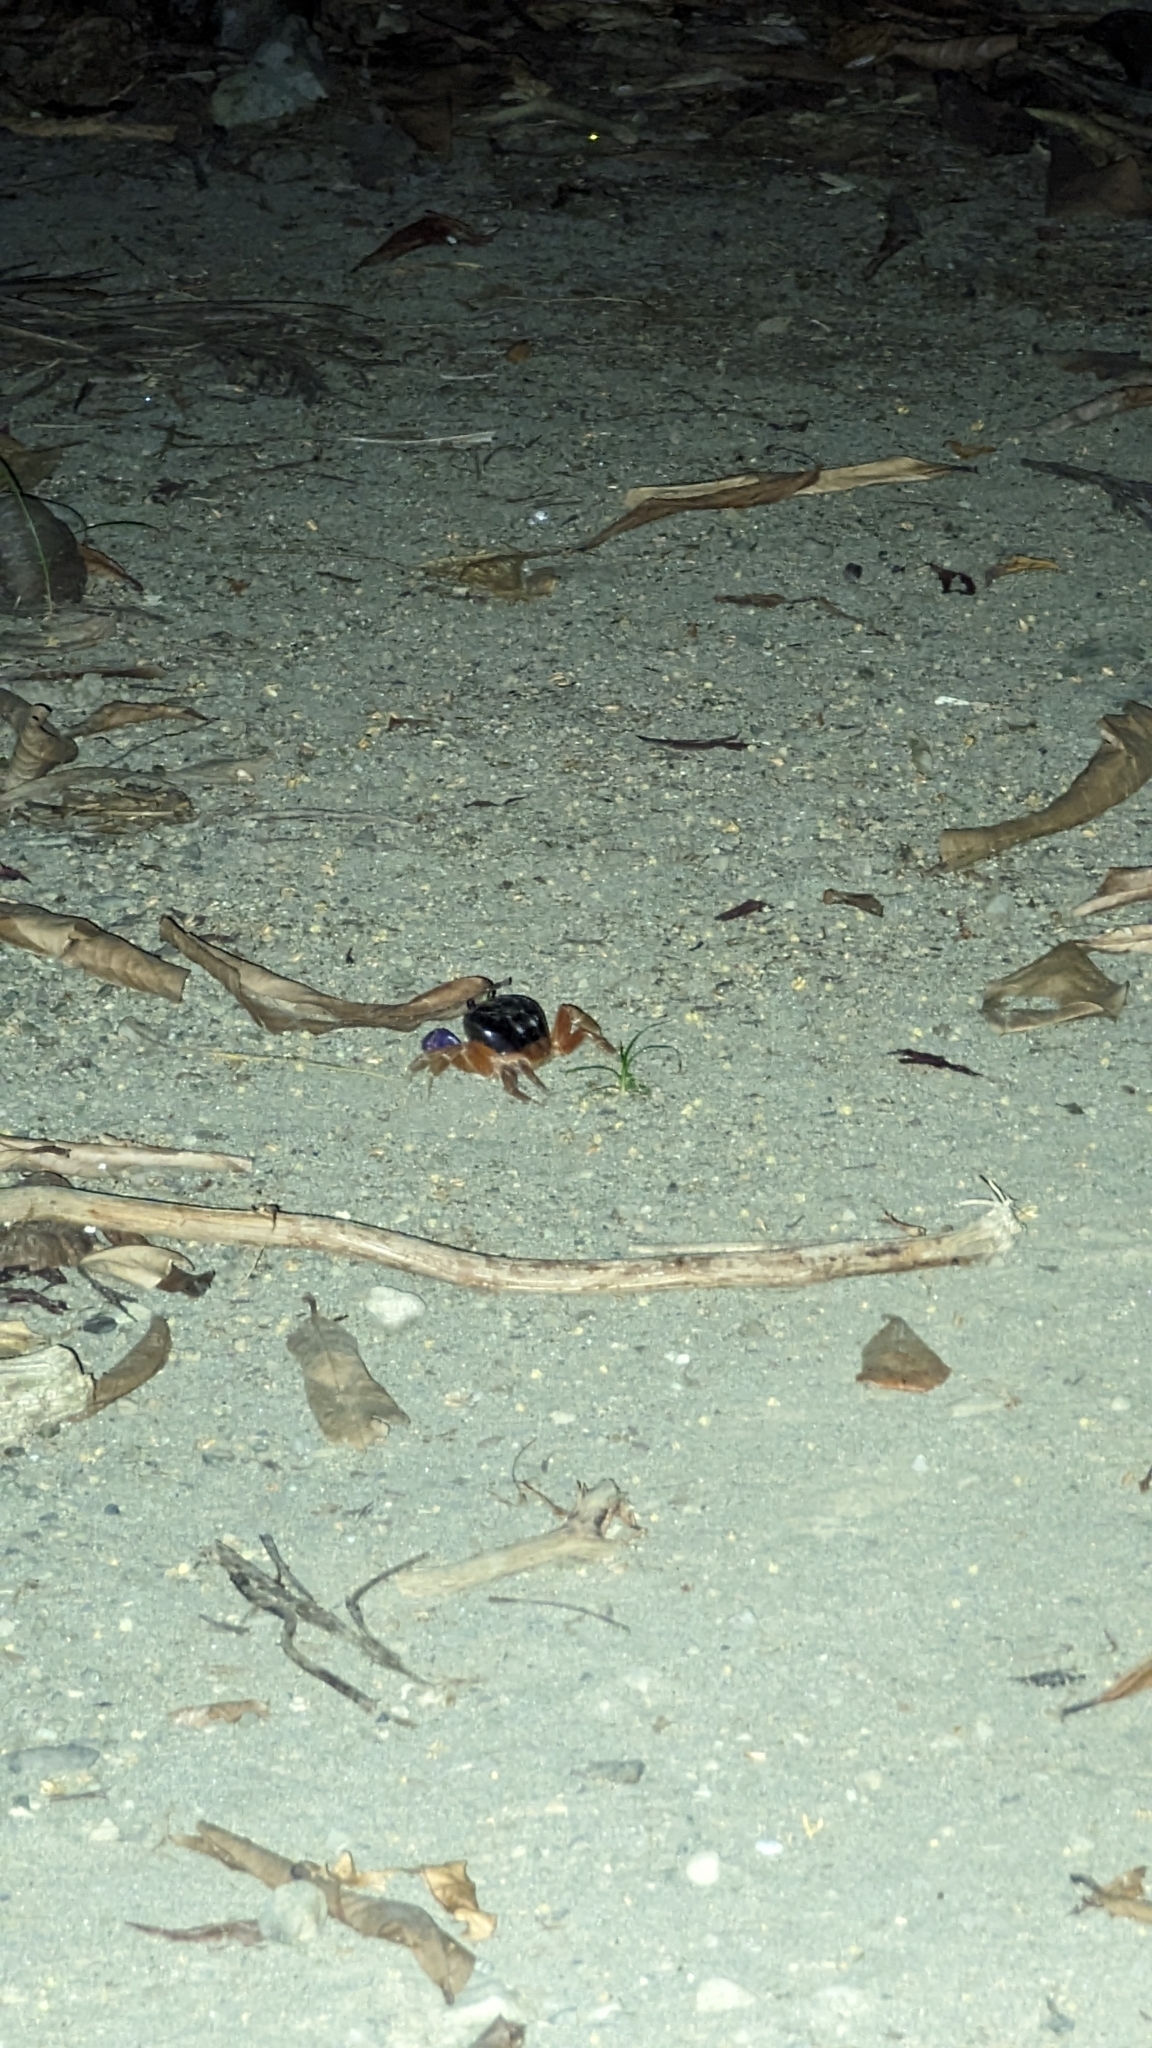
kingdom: Animalia
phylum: Arthropoda
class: Malacostraca
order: Decapoda
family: Gecarcinidae
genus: Gecarcinus
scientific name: Gecarcinus quadratus
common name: Halloween crab
